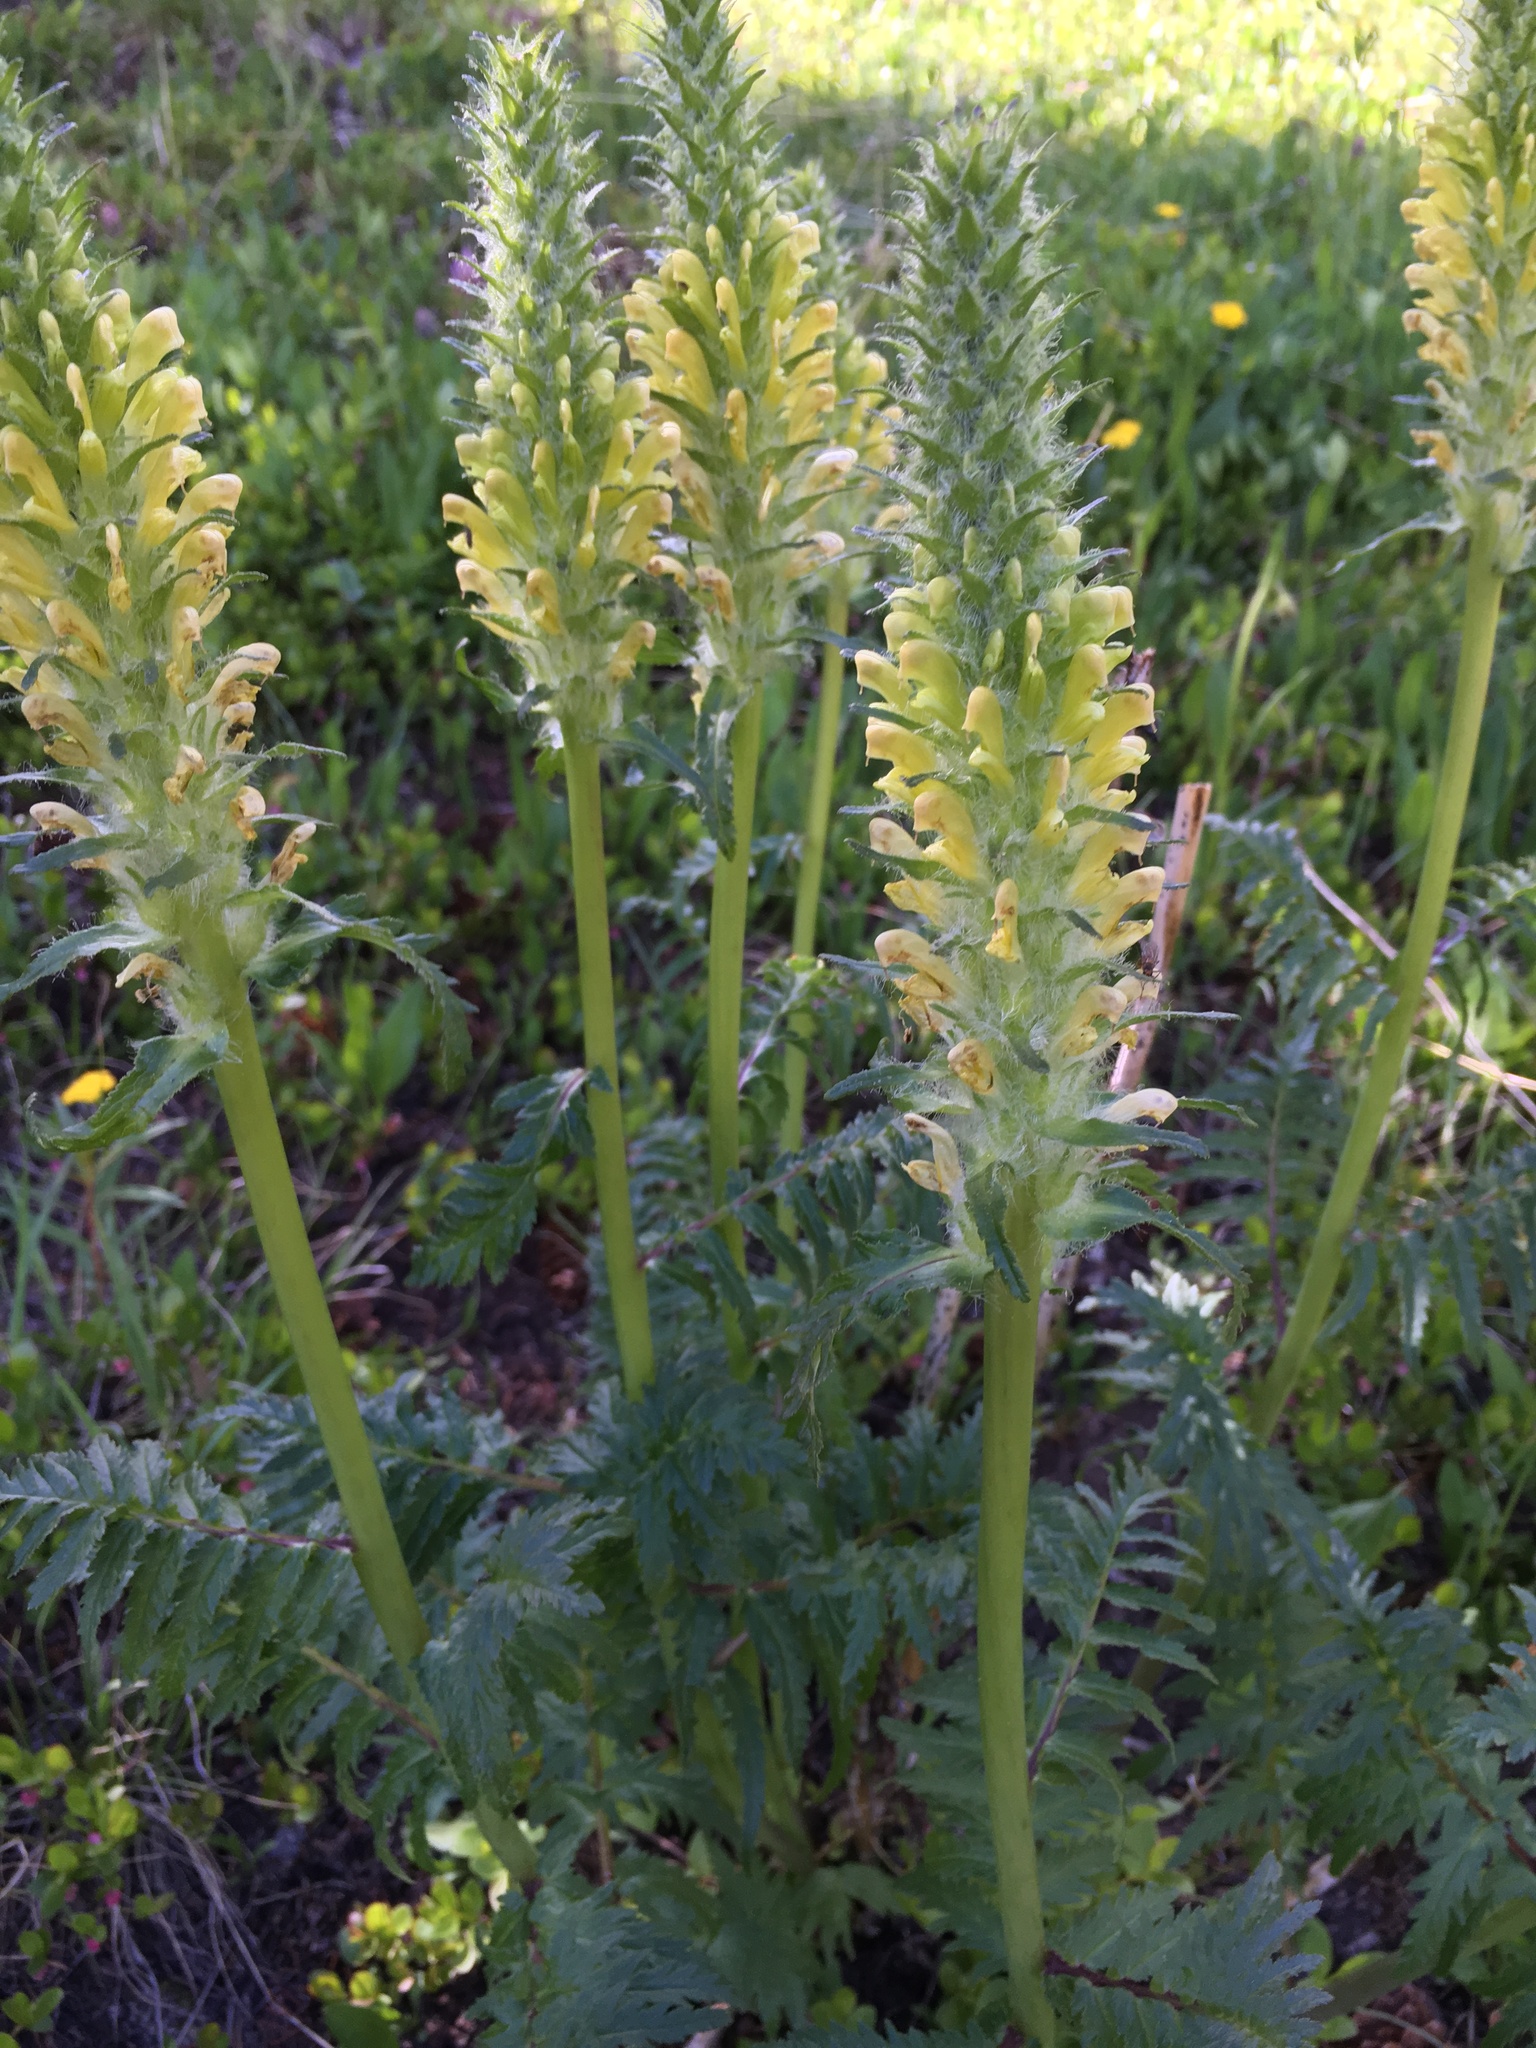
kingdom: Plantae
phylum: Tracheophyta
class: Magnoliopsida
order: Lamiales
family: Orobanchaceae
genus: Pedicularis
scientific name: Pedicularis bracteosa
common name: Bracted lousewort
